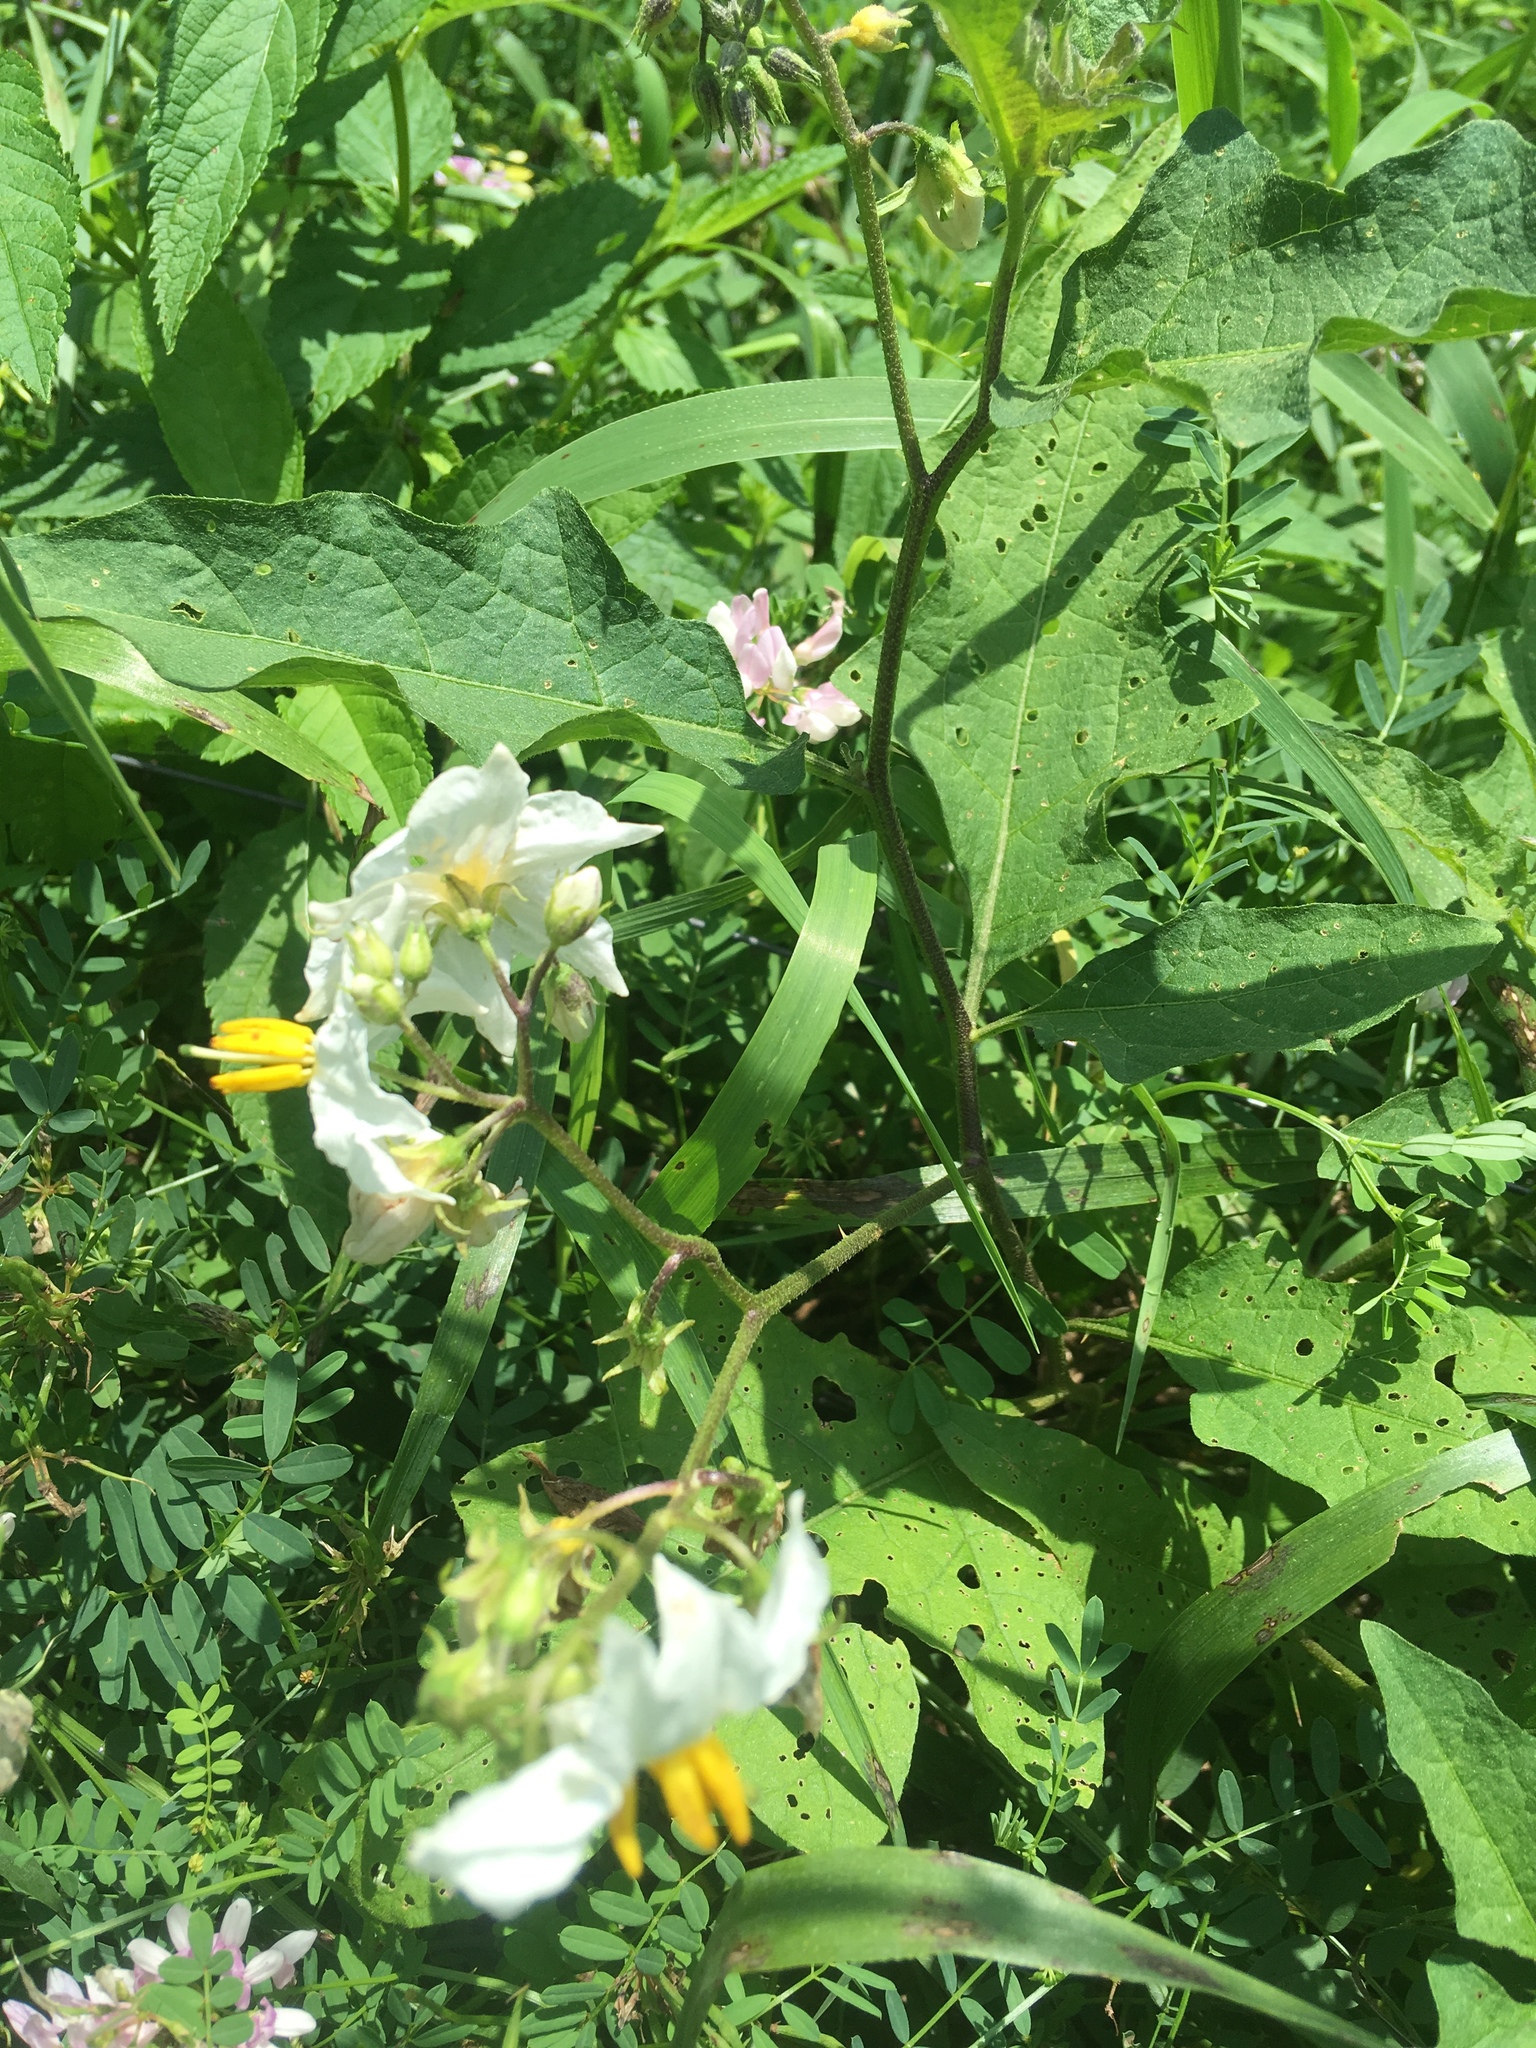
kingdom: Plantae
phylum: Tracheophyta
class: Magnoliopsida
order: Solanales
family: Solanaceae
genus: Solanum
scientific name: Solanum carolinense
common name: Horse-nettle
